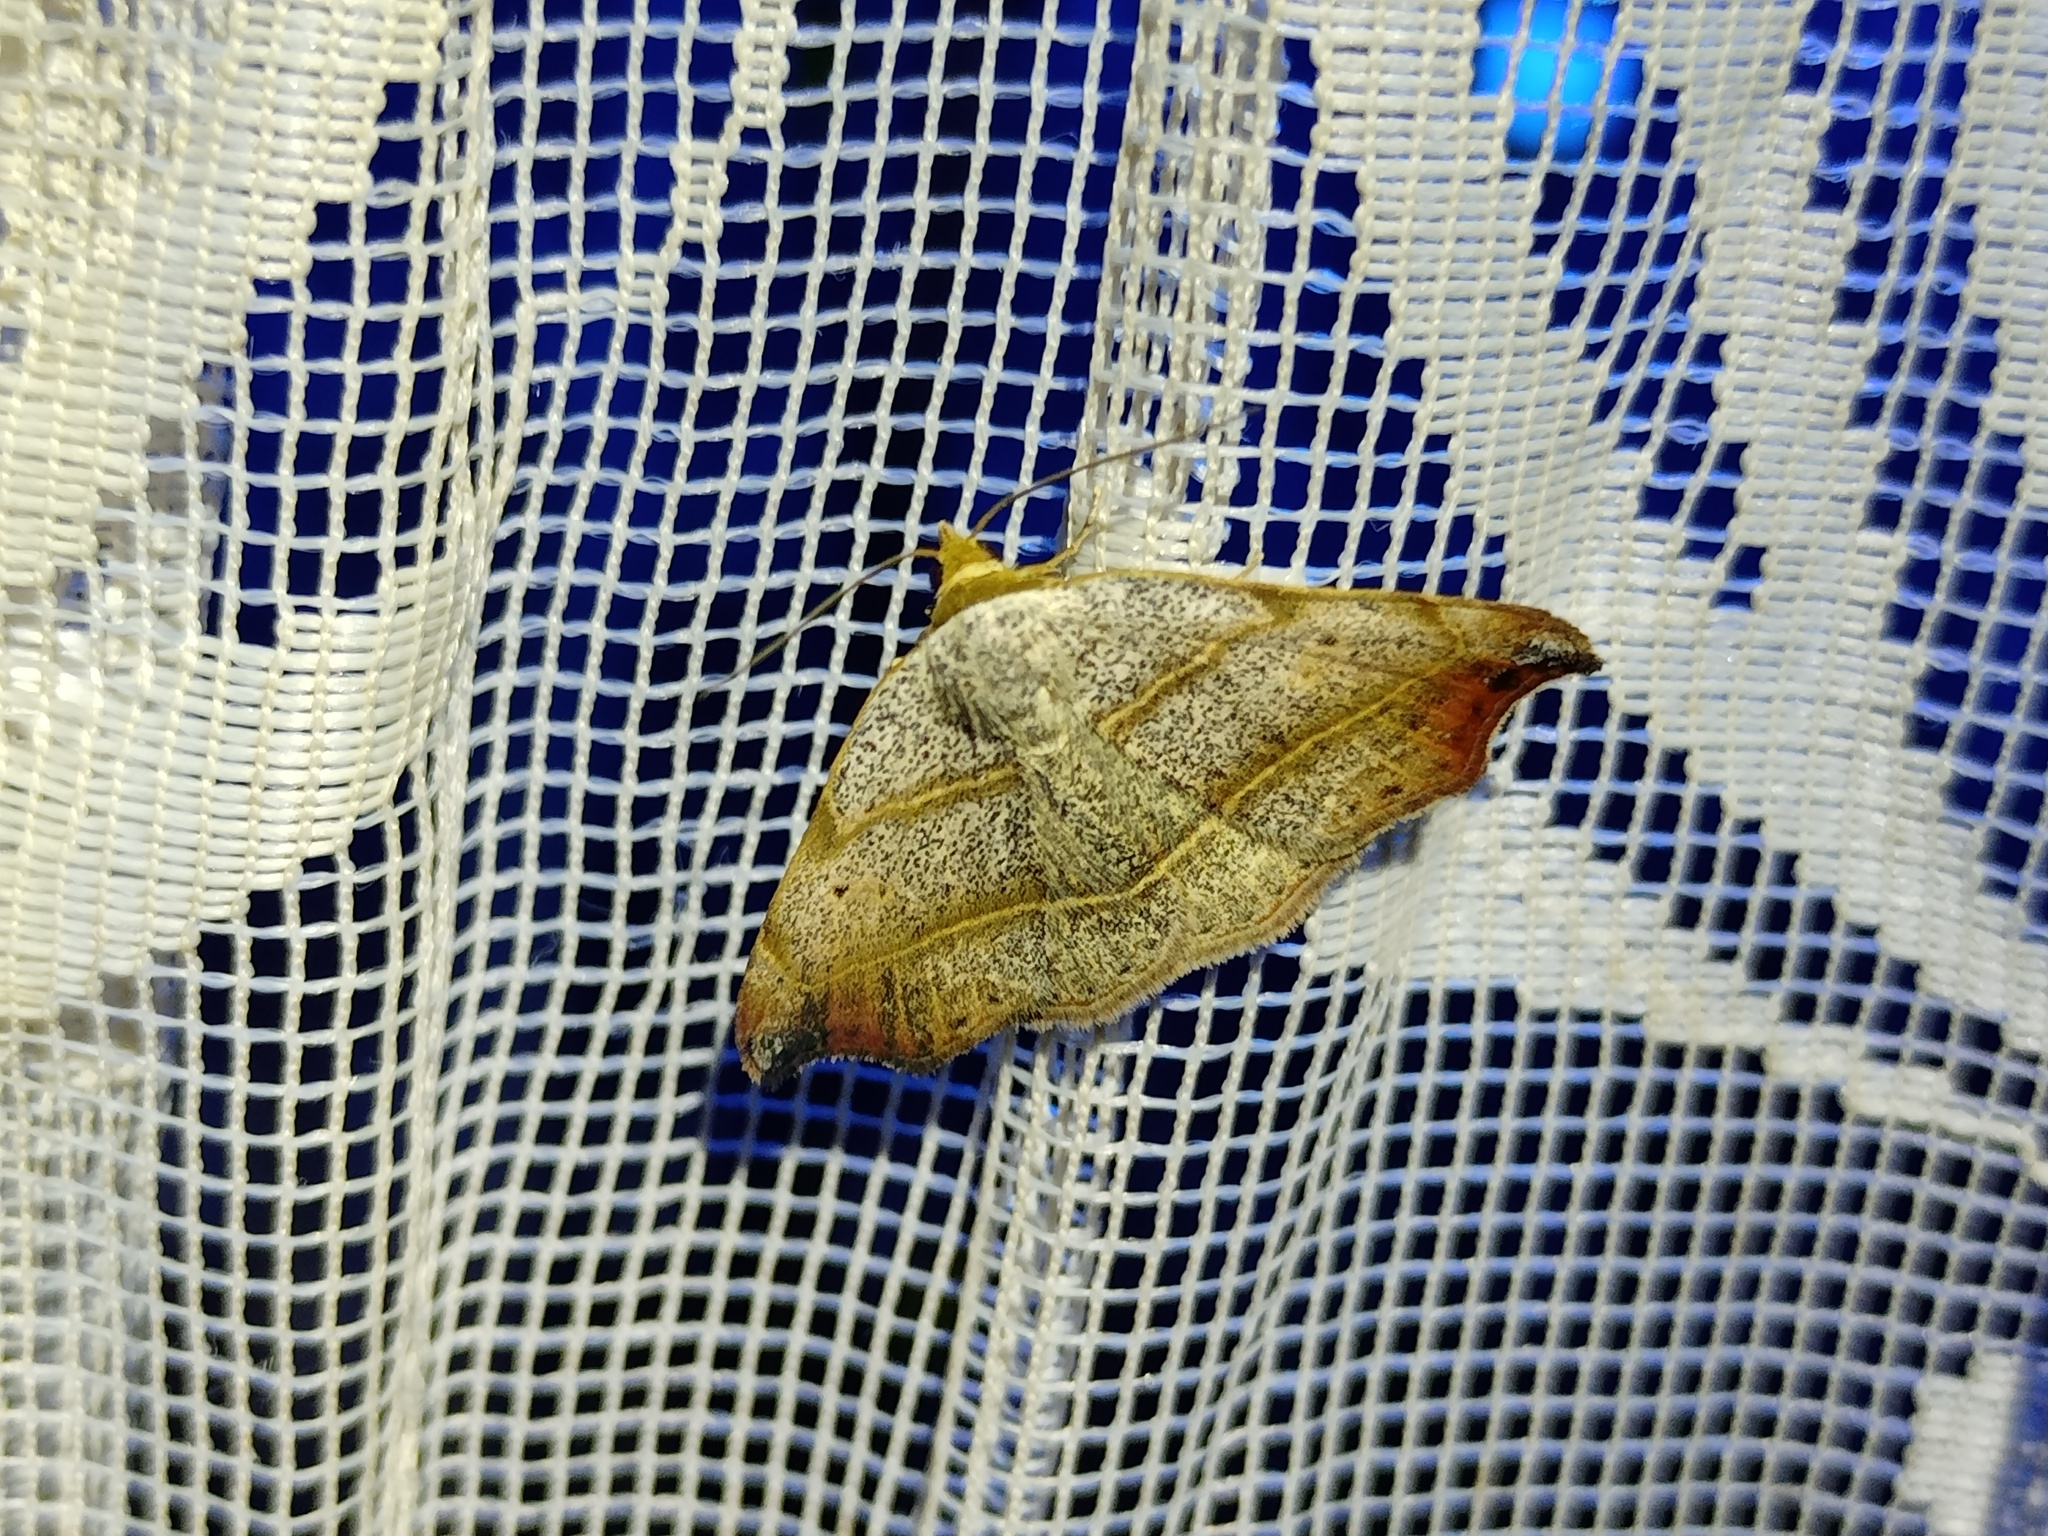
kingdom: Animalia
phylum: Arthropoda
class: Insecta
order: Lepidoptera
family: Erebidae
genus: Laspeyria
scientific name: Laspeyria flexula
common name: Beautiful hook-tip
